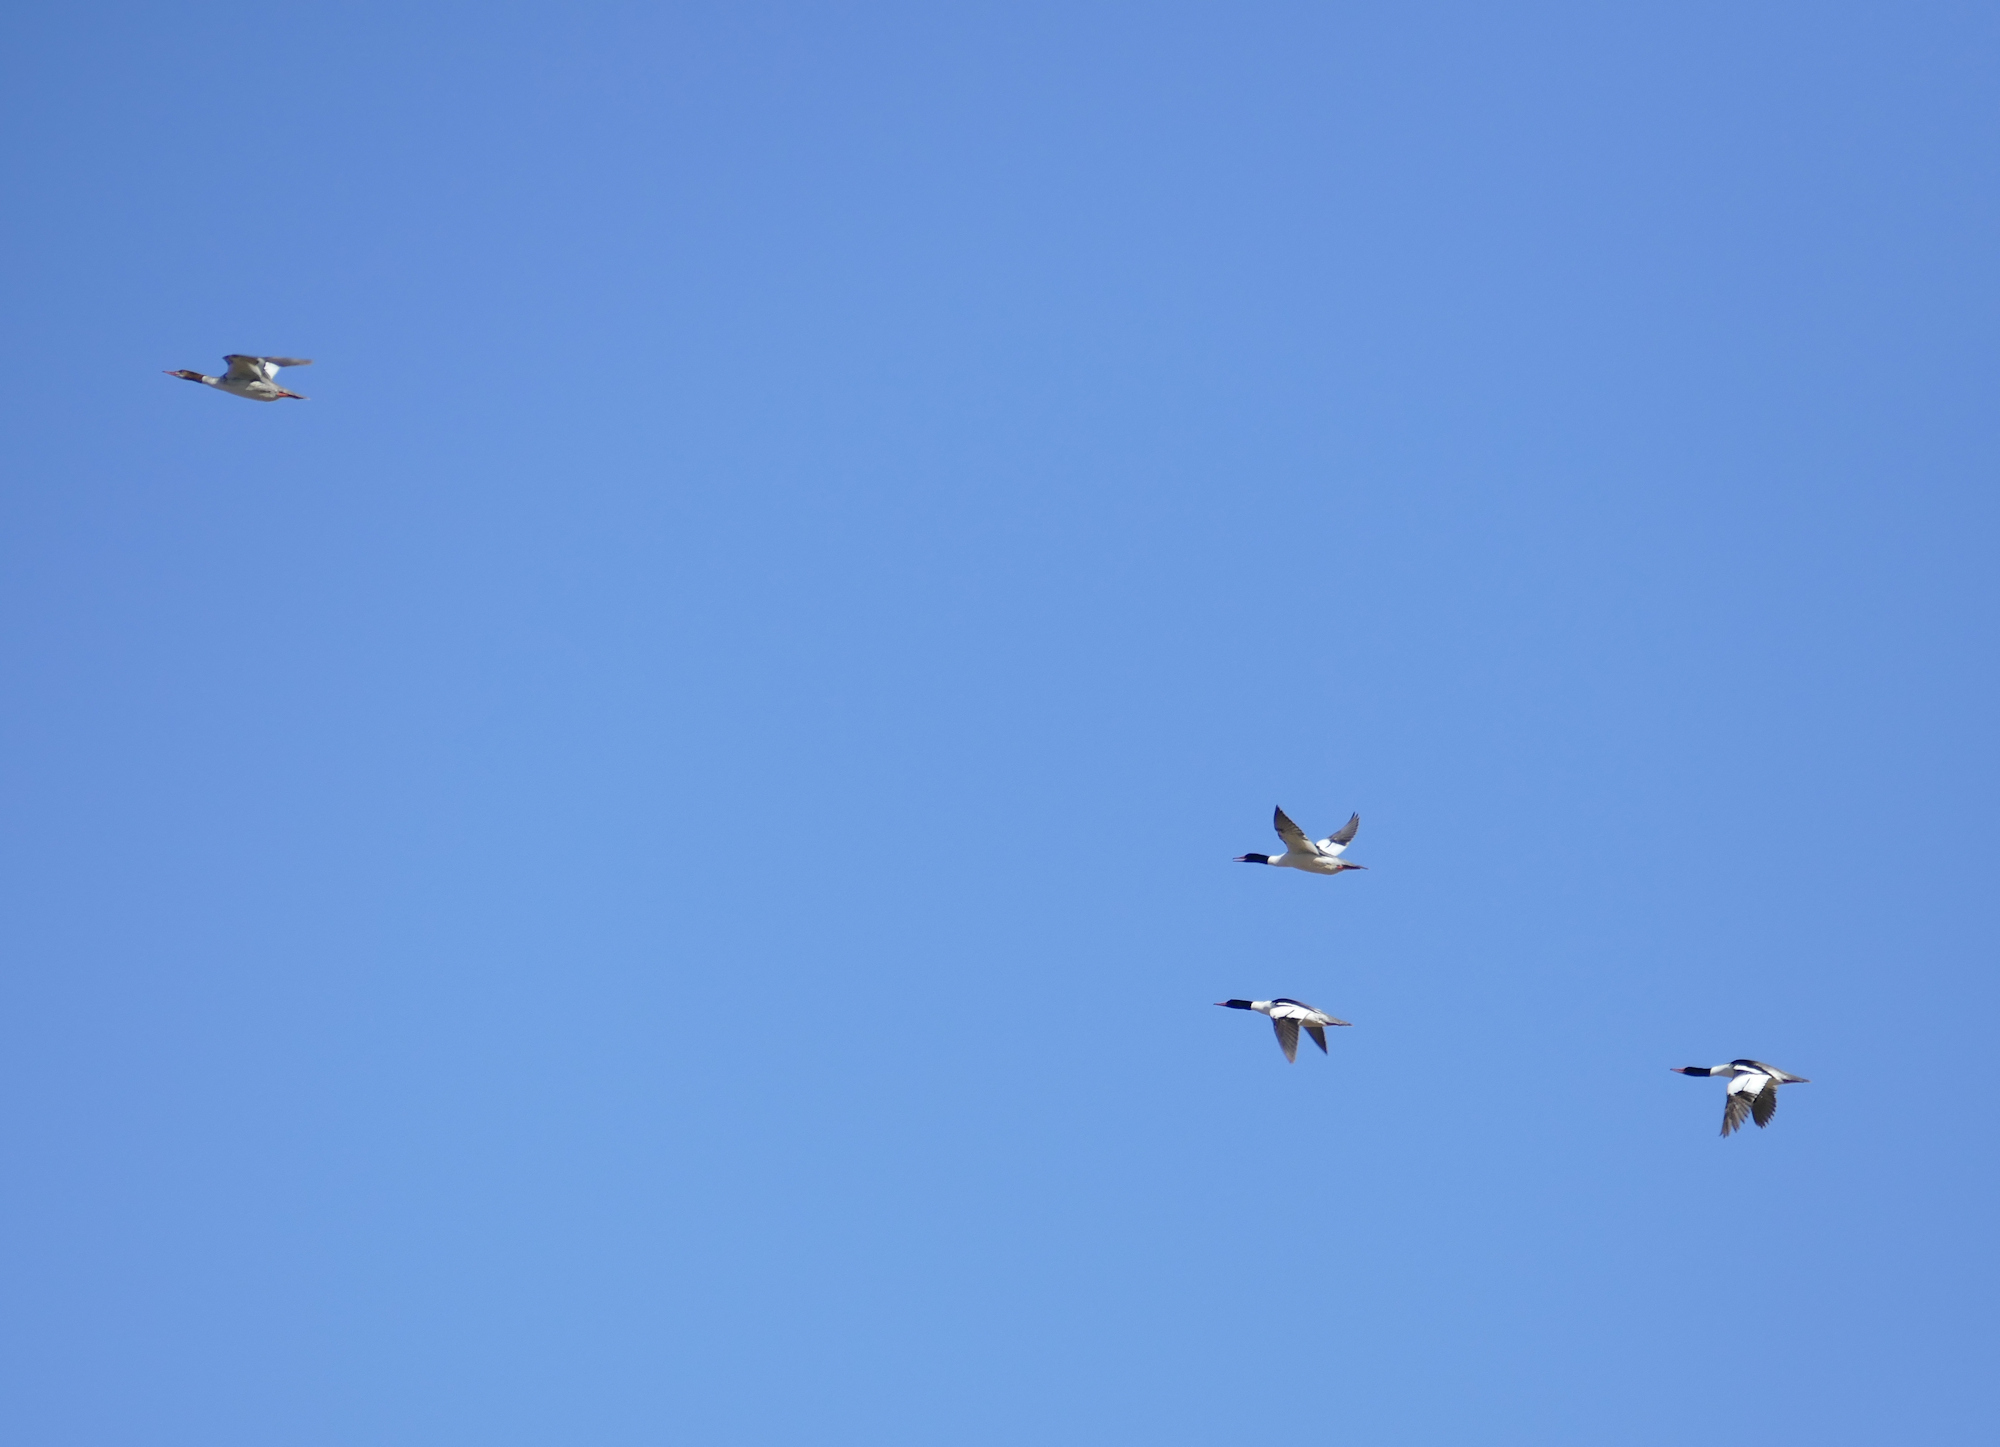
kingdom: Animalia
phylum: Chordata
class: Aves
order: Anseriformes
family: Anatidae
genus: Mergus
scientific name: Mergus merganser
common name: Common merganser
